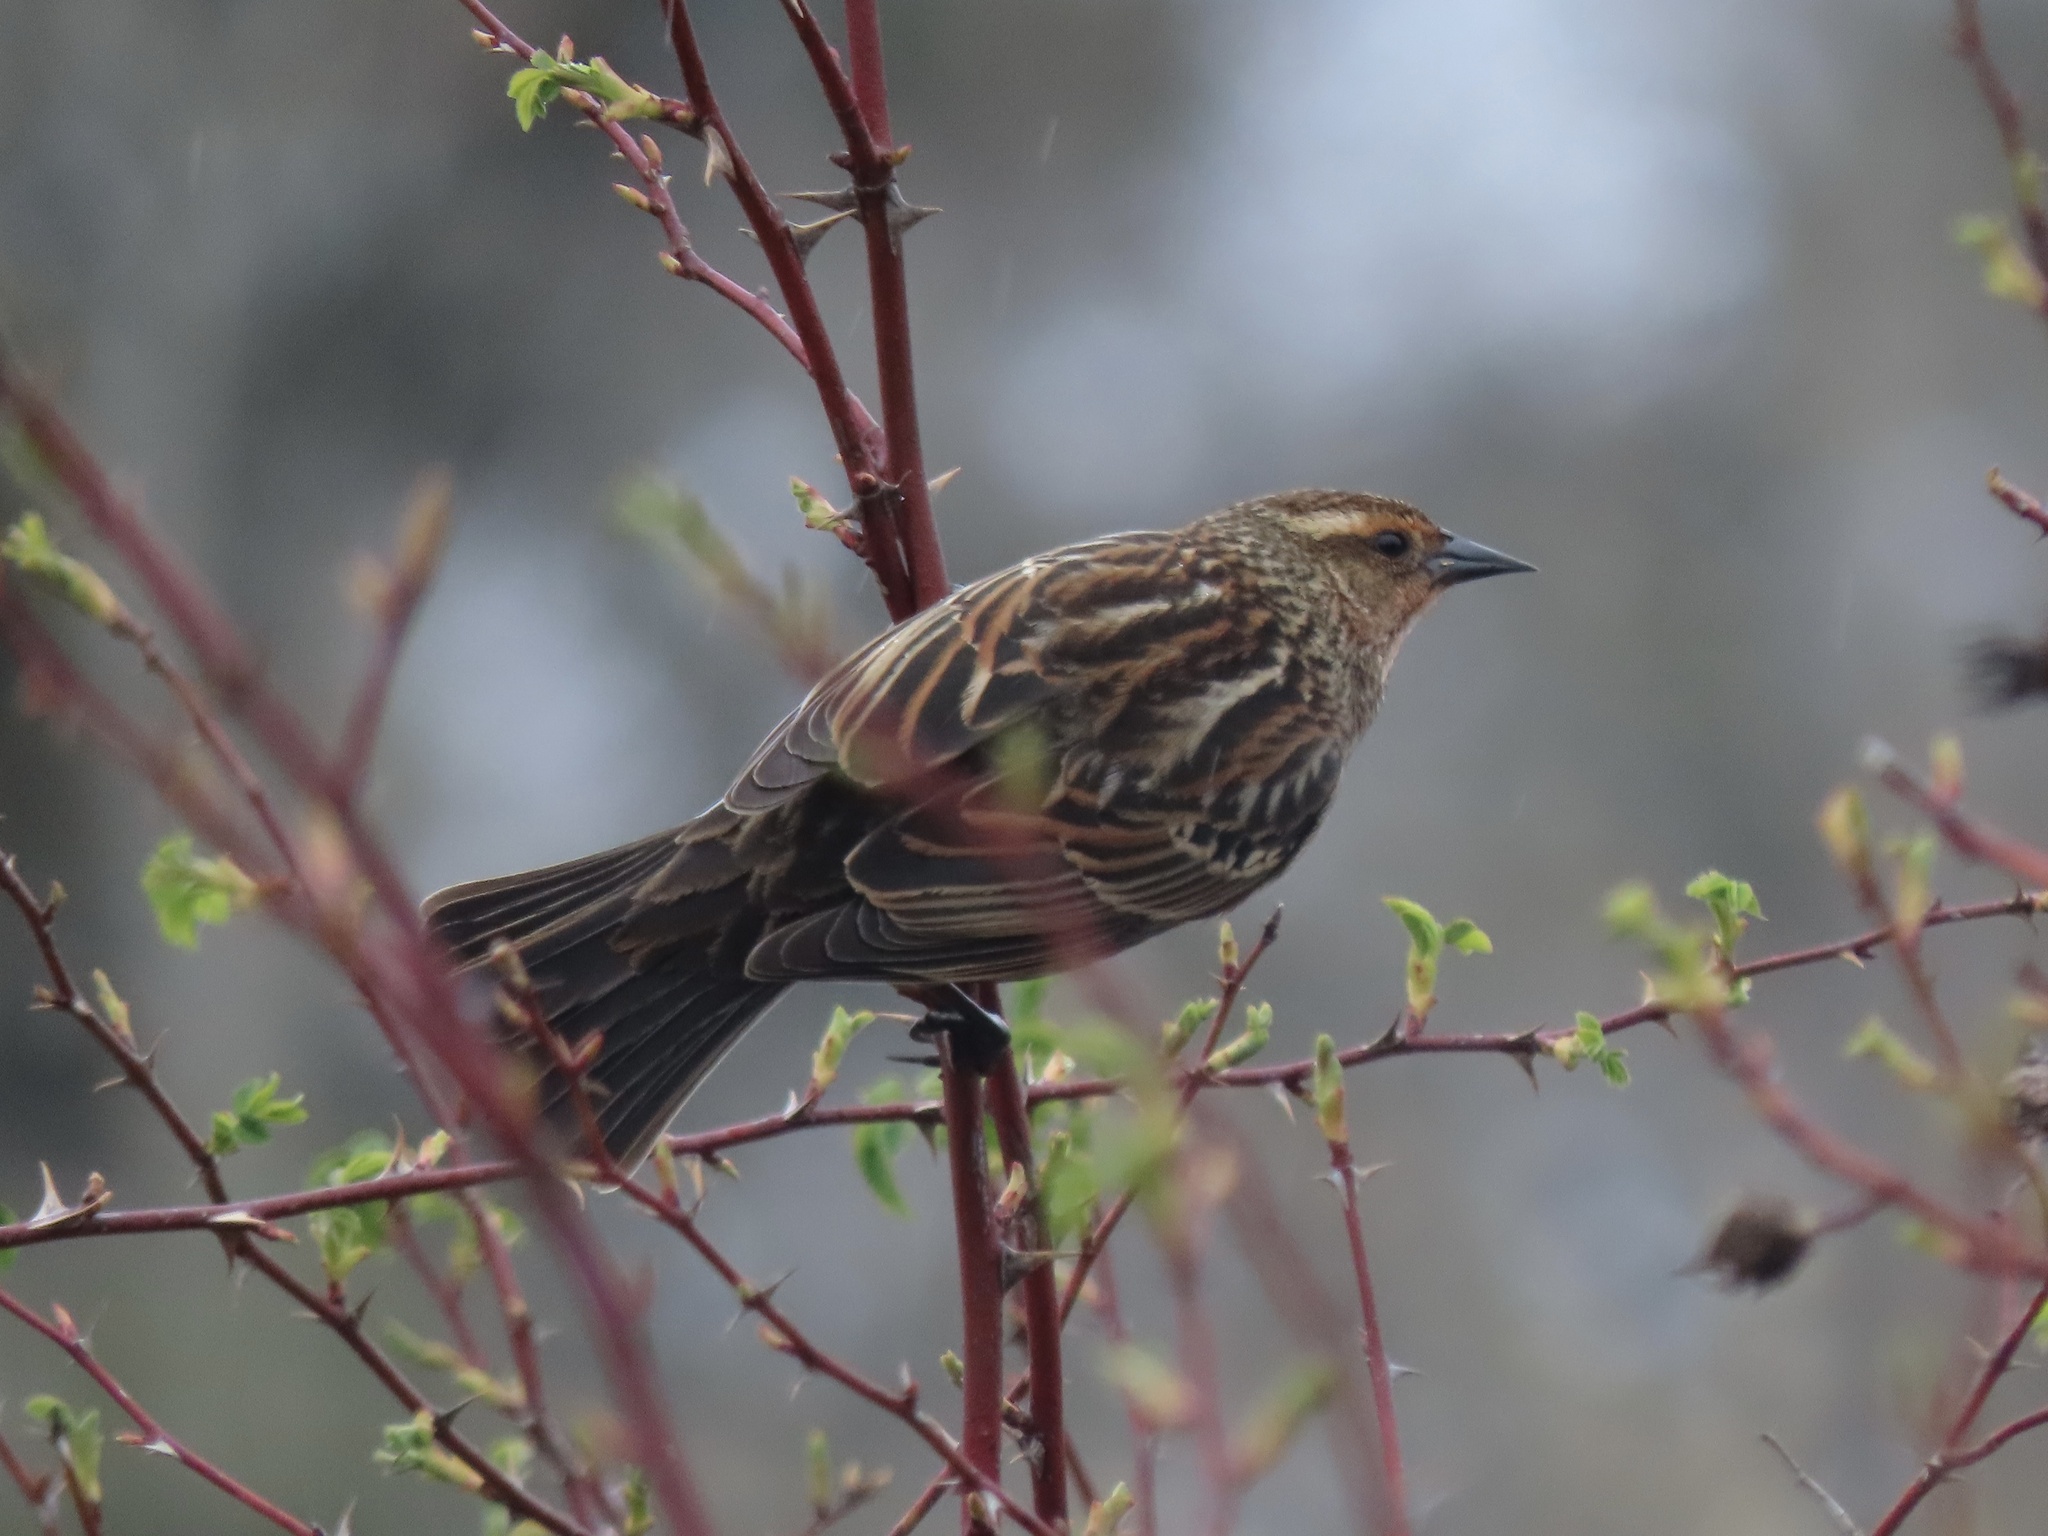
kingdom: Animalia
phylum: Chordata
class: Aves
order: Passeriformes
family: Icteridae
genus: Agelaius
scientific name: Agelaius phoeniceus
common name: Red-winged blackbird
